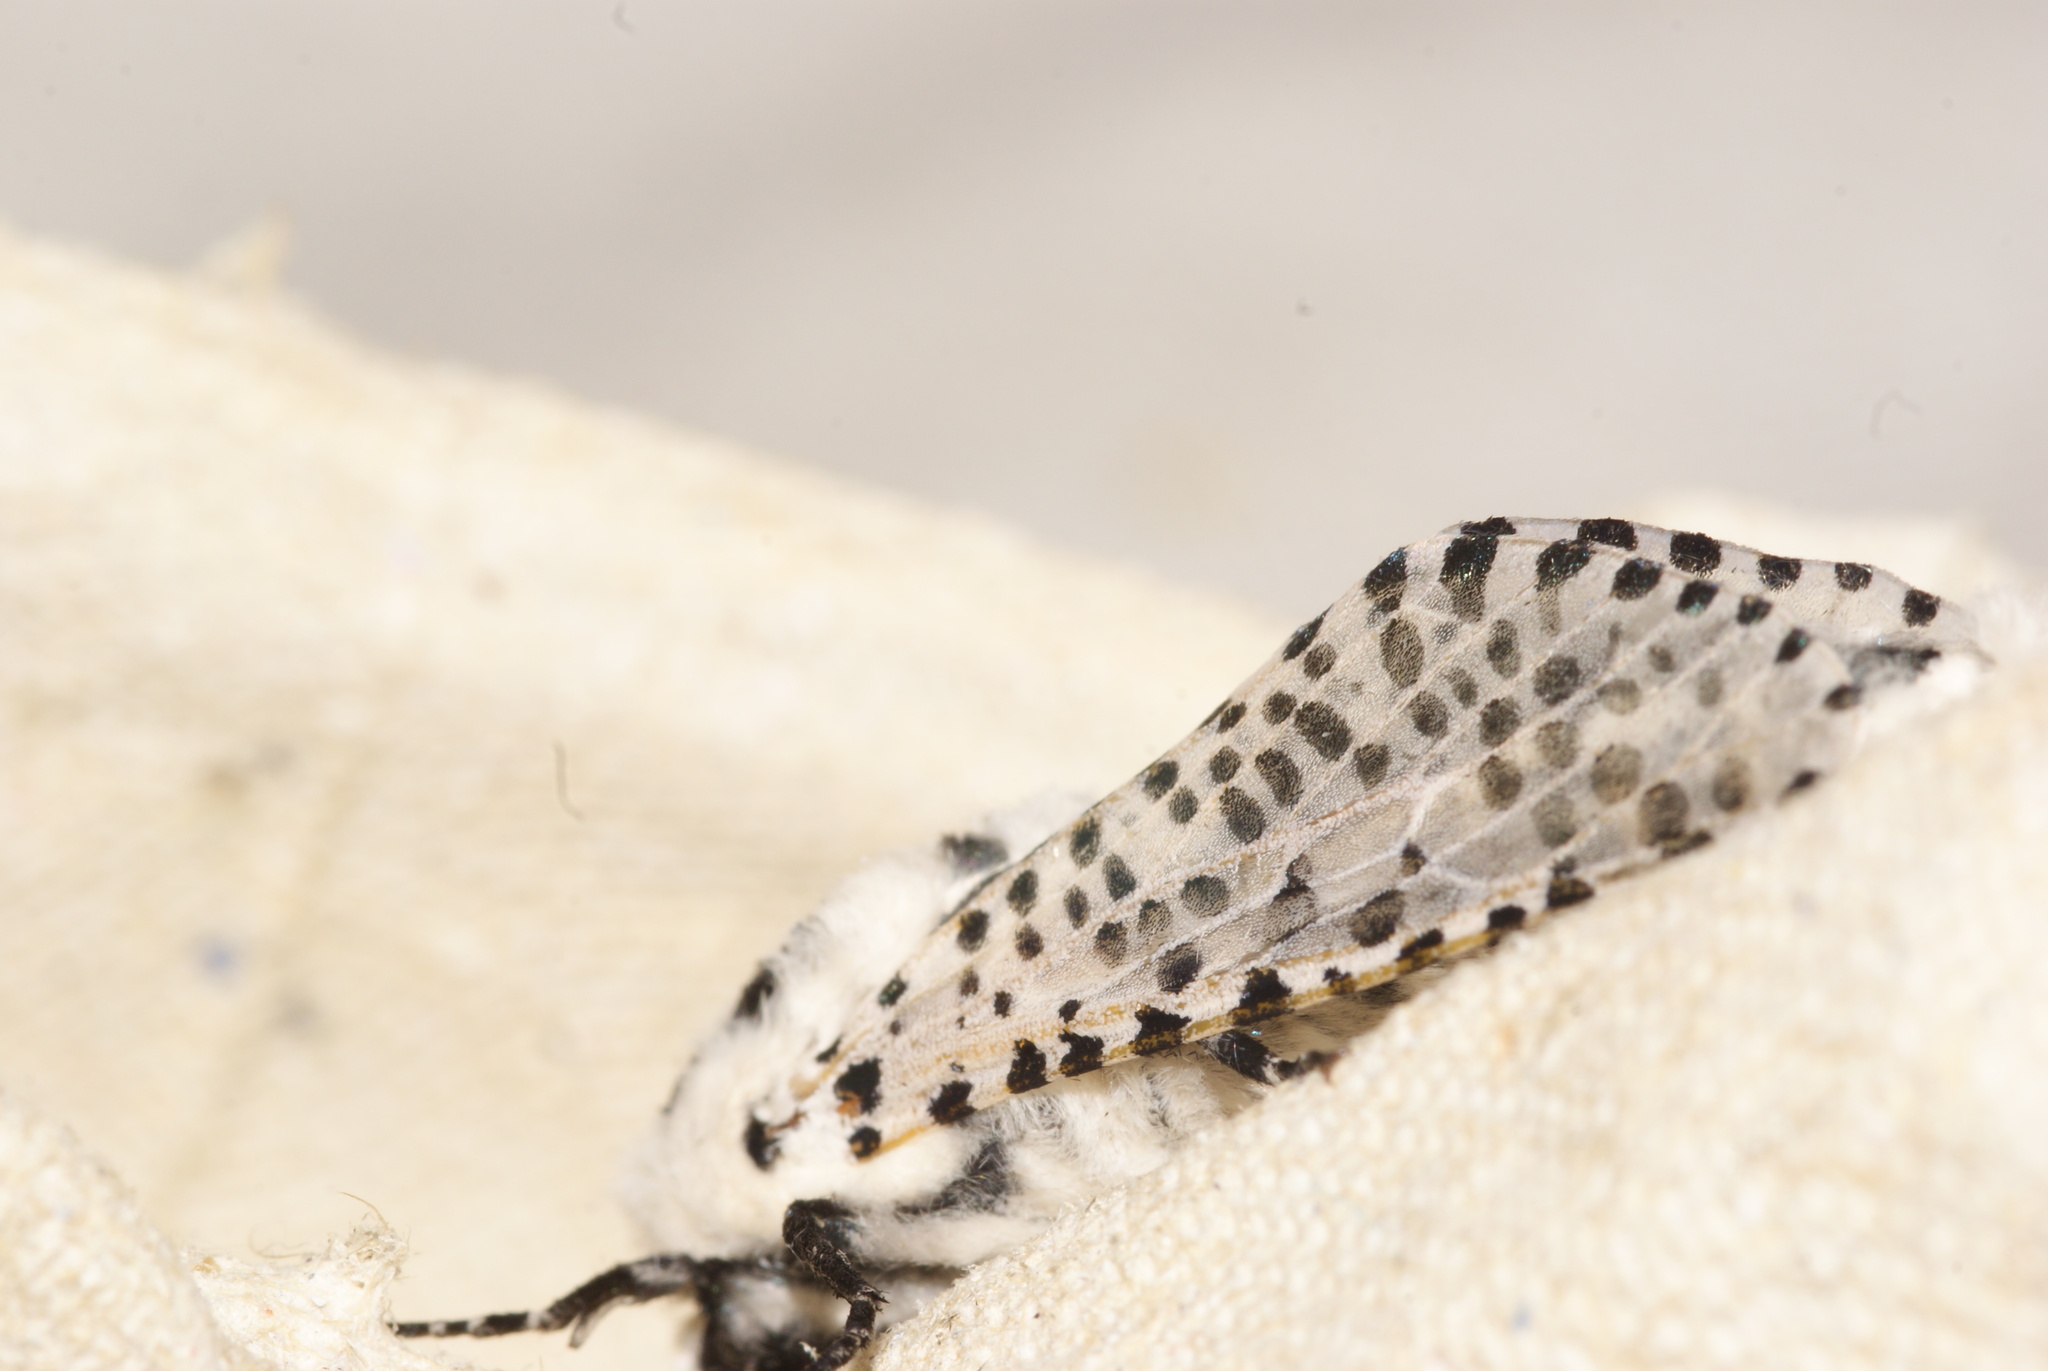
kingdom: Animalia
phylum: Arthropoda
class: Insecta
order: Lepidoptera
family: Cossidae
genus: Zeuzera
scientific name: Zeuzera pyrina
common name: Leopard moth
